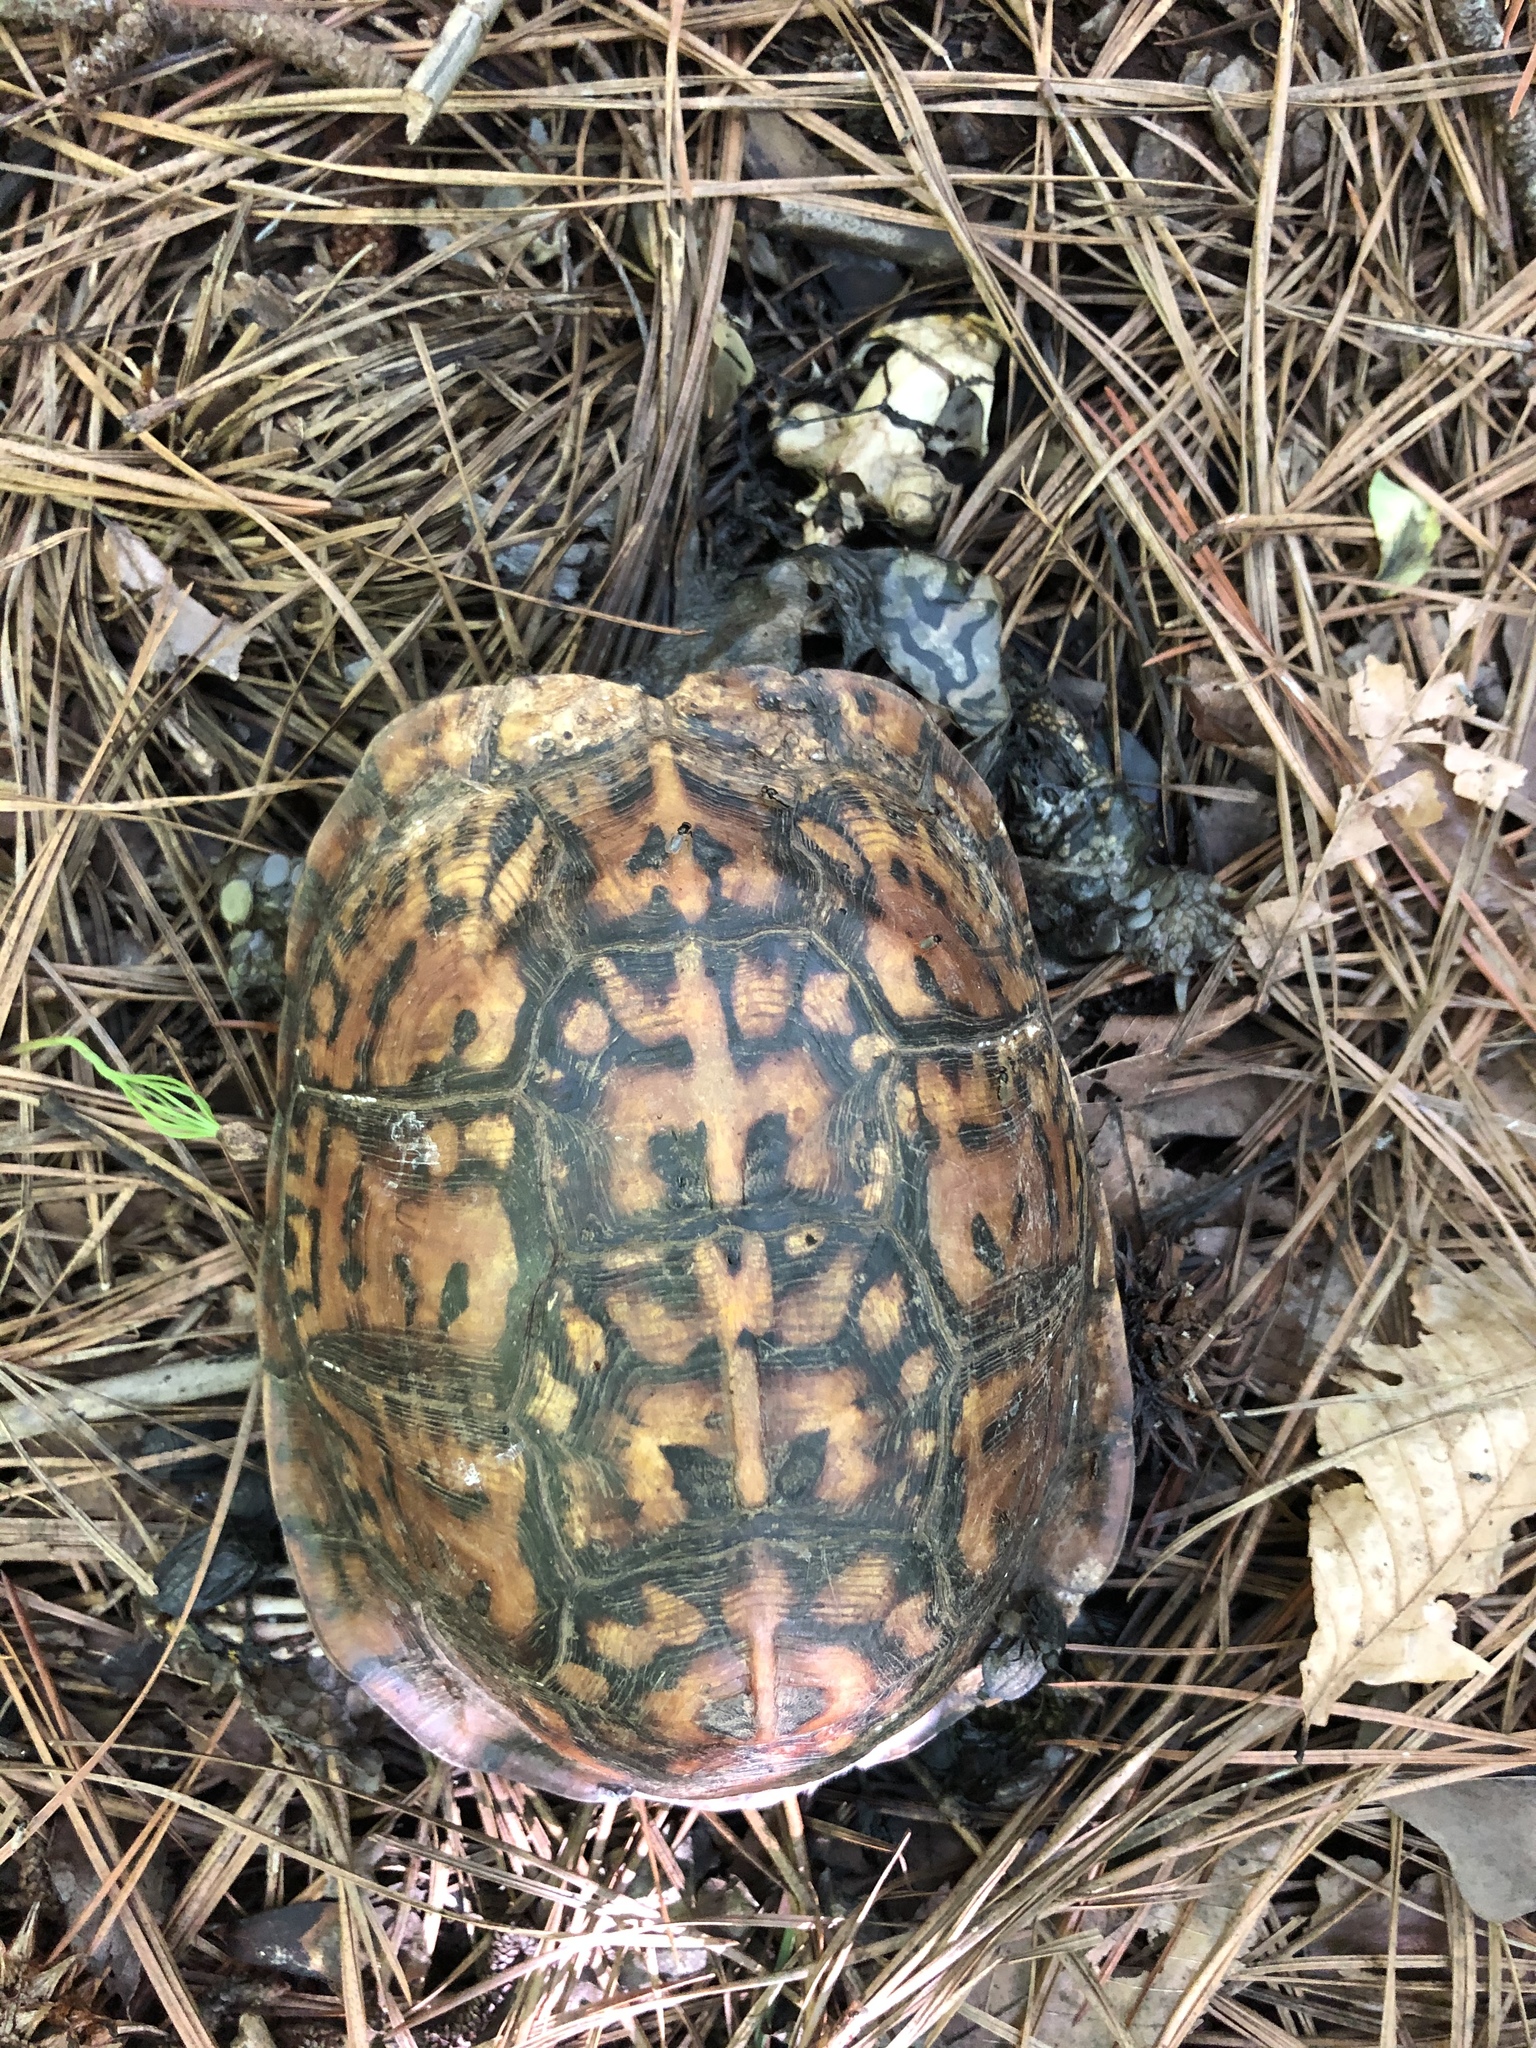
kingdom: Animalia
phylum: Chordata
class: Testudines
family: Emydidae
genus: Terrapene
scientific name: Terrapene carolina
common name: Common box turtle
